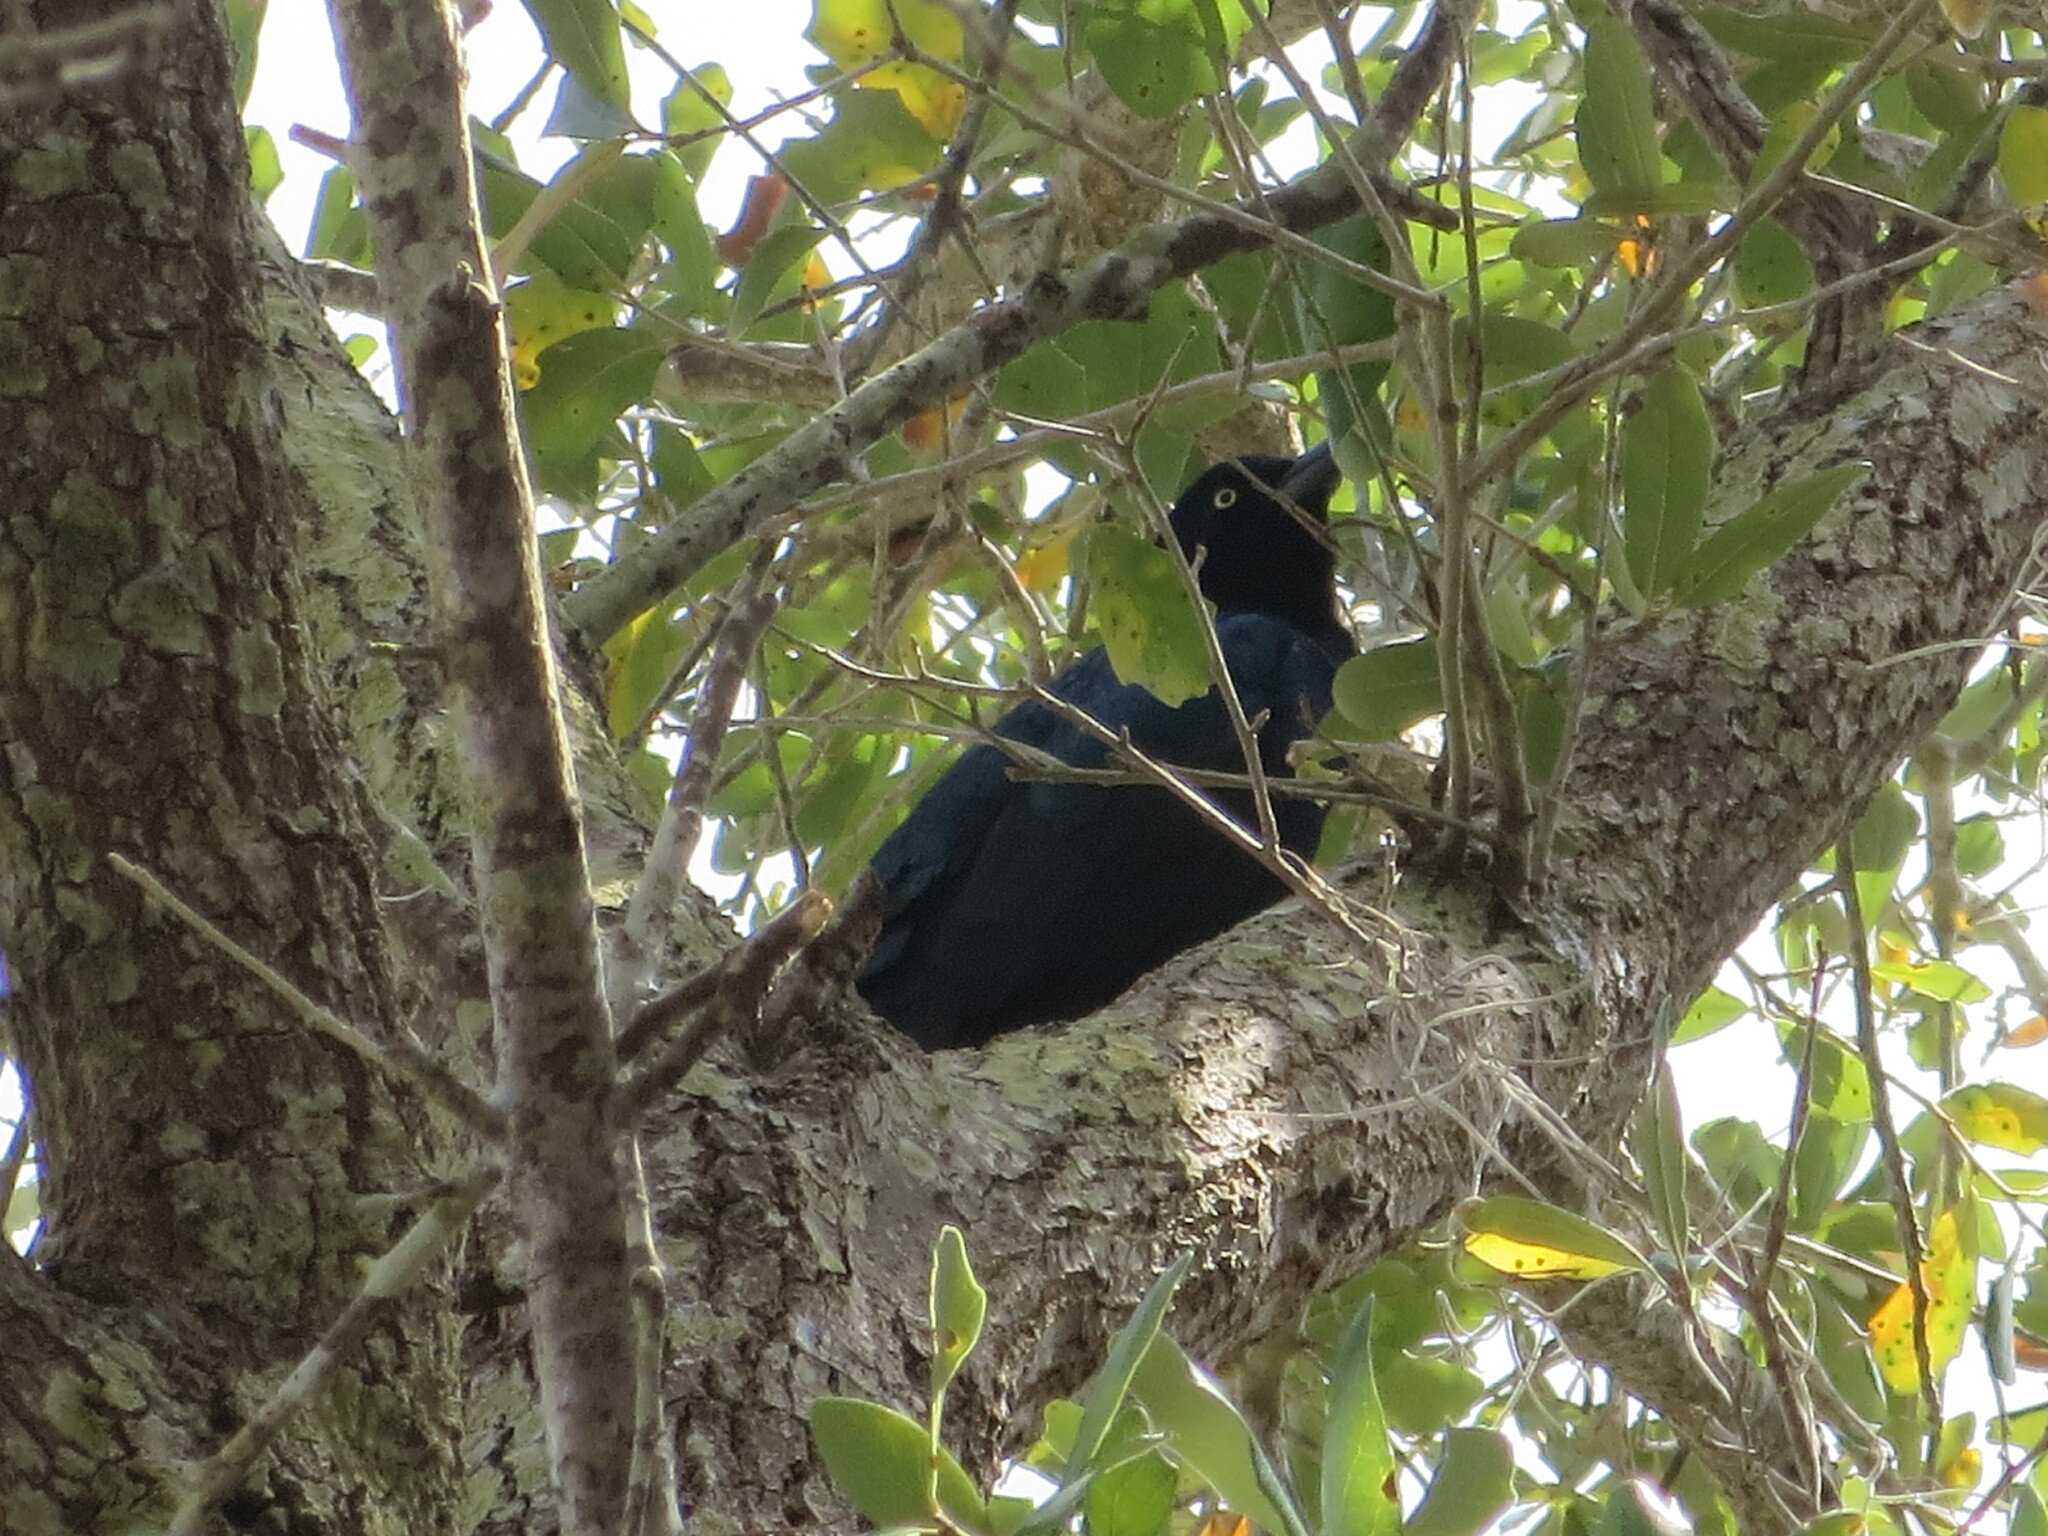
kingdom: Animalia
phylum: Chordata
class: Aves
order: Passeriformes
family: Icteridae
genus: Quiscalus
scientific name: Quiscalus major
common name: Boat-tailed grackle
